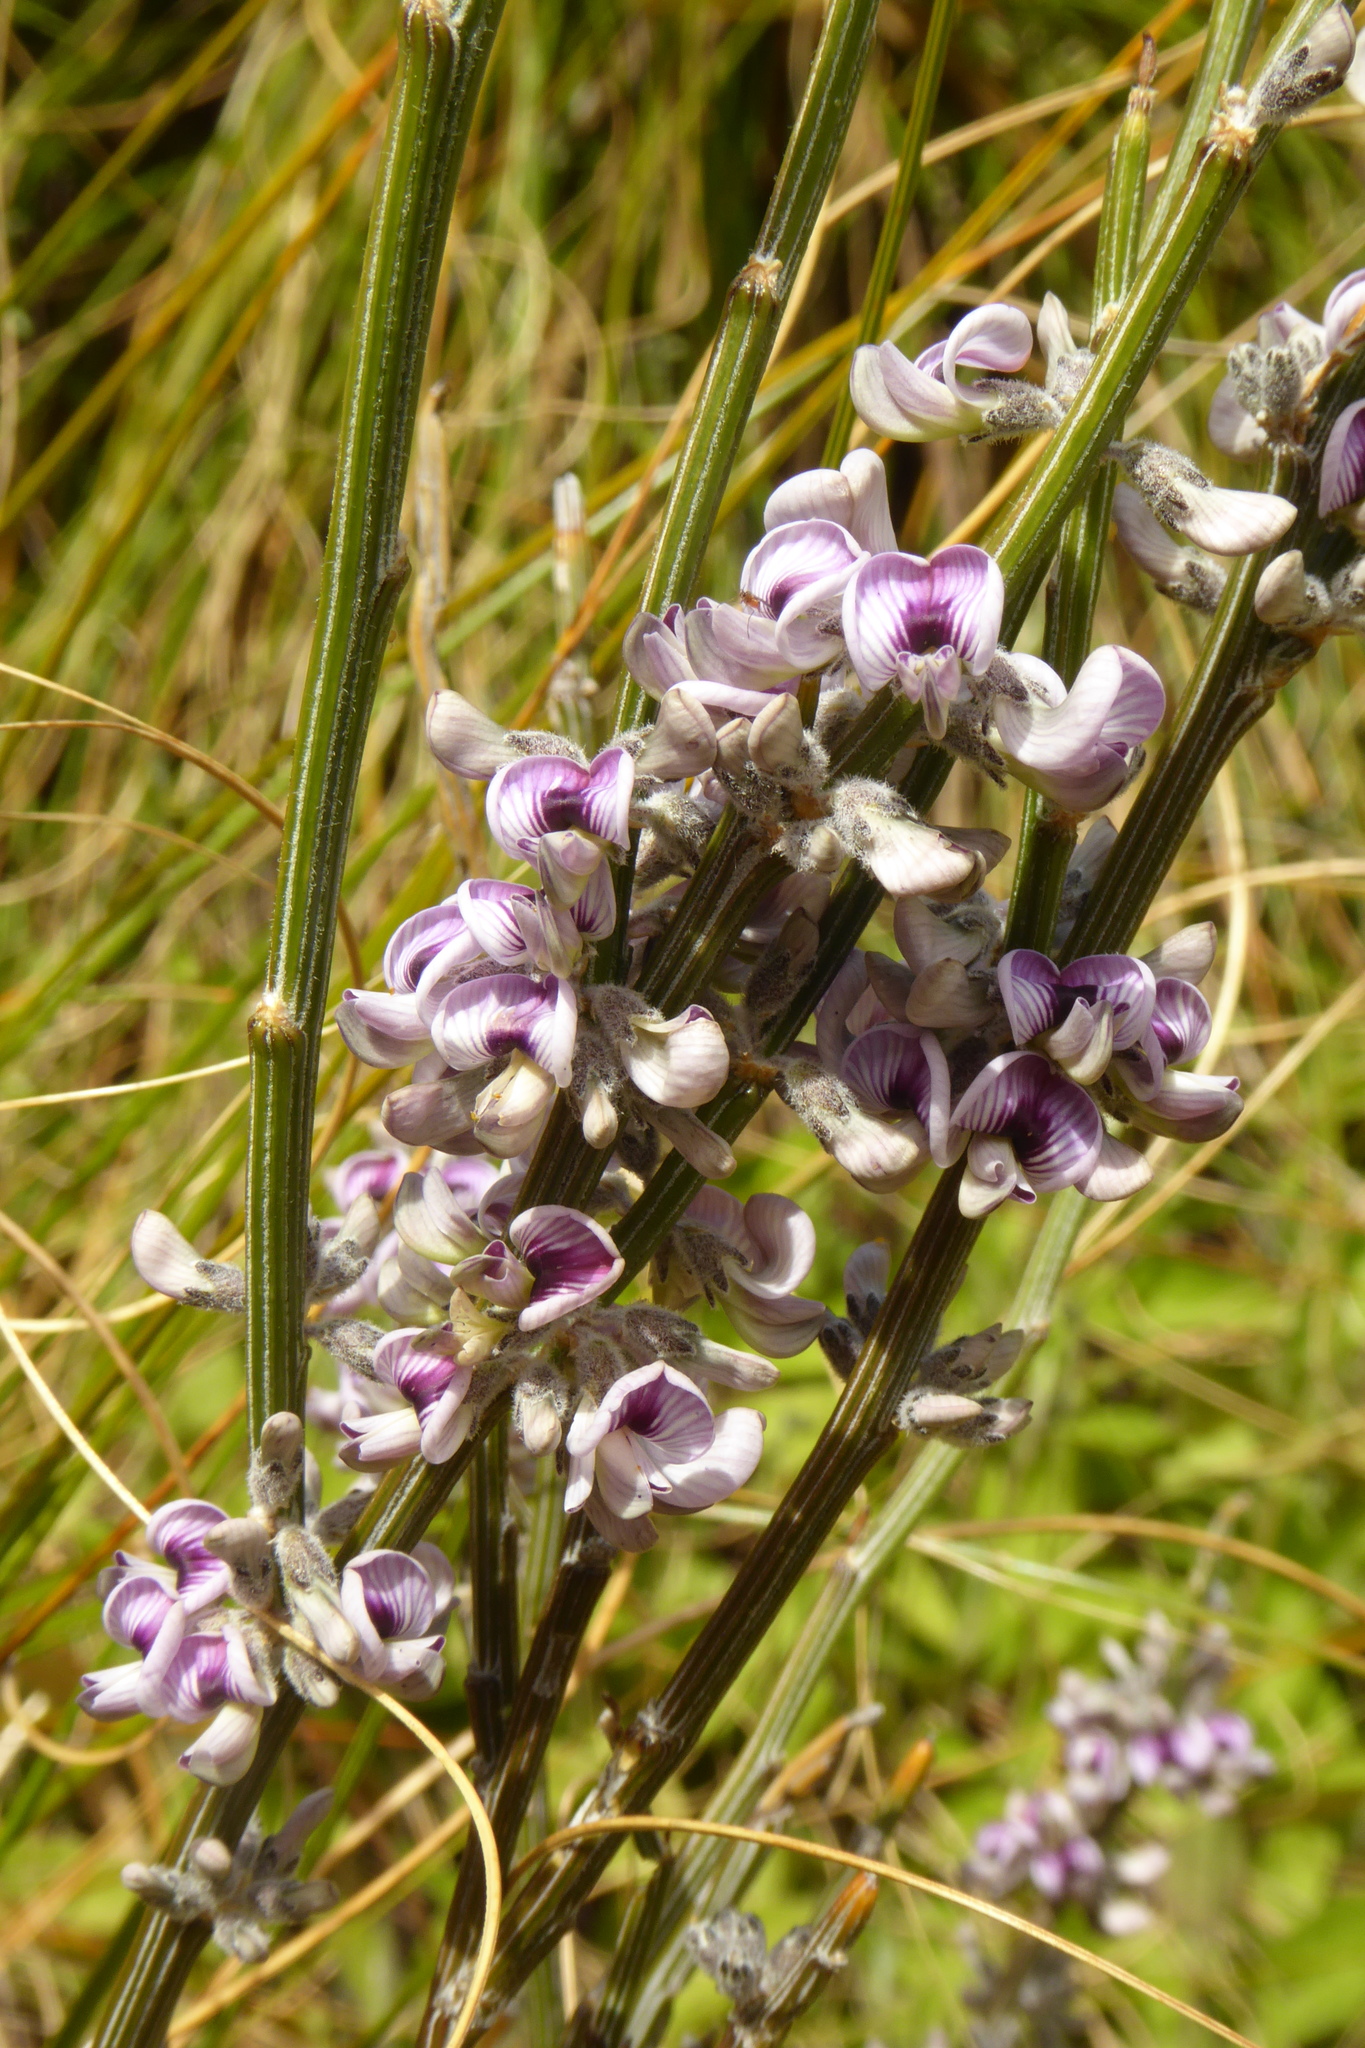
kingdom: Plantae
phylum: Tracheophyta
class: Magnoliopsida
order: Fabales
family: Fabaceae
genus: Carmichaelia
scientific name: Carmichaelia crassicaulis
